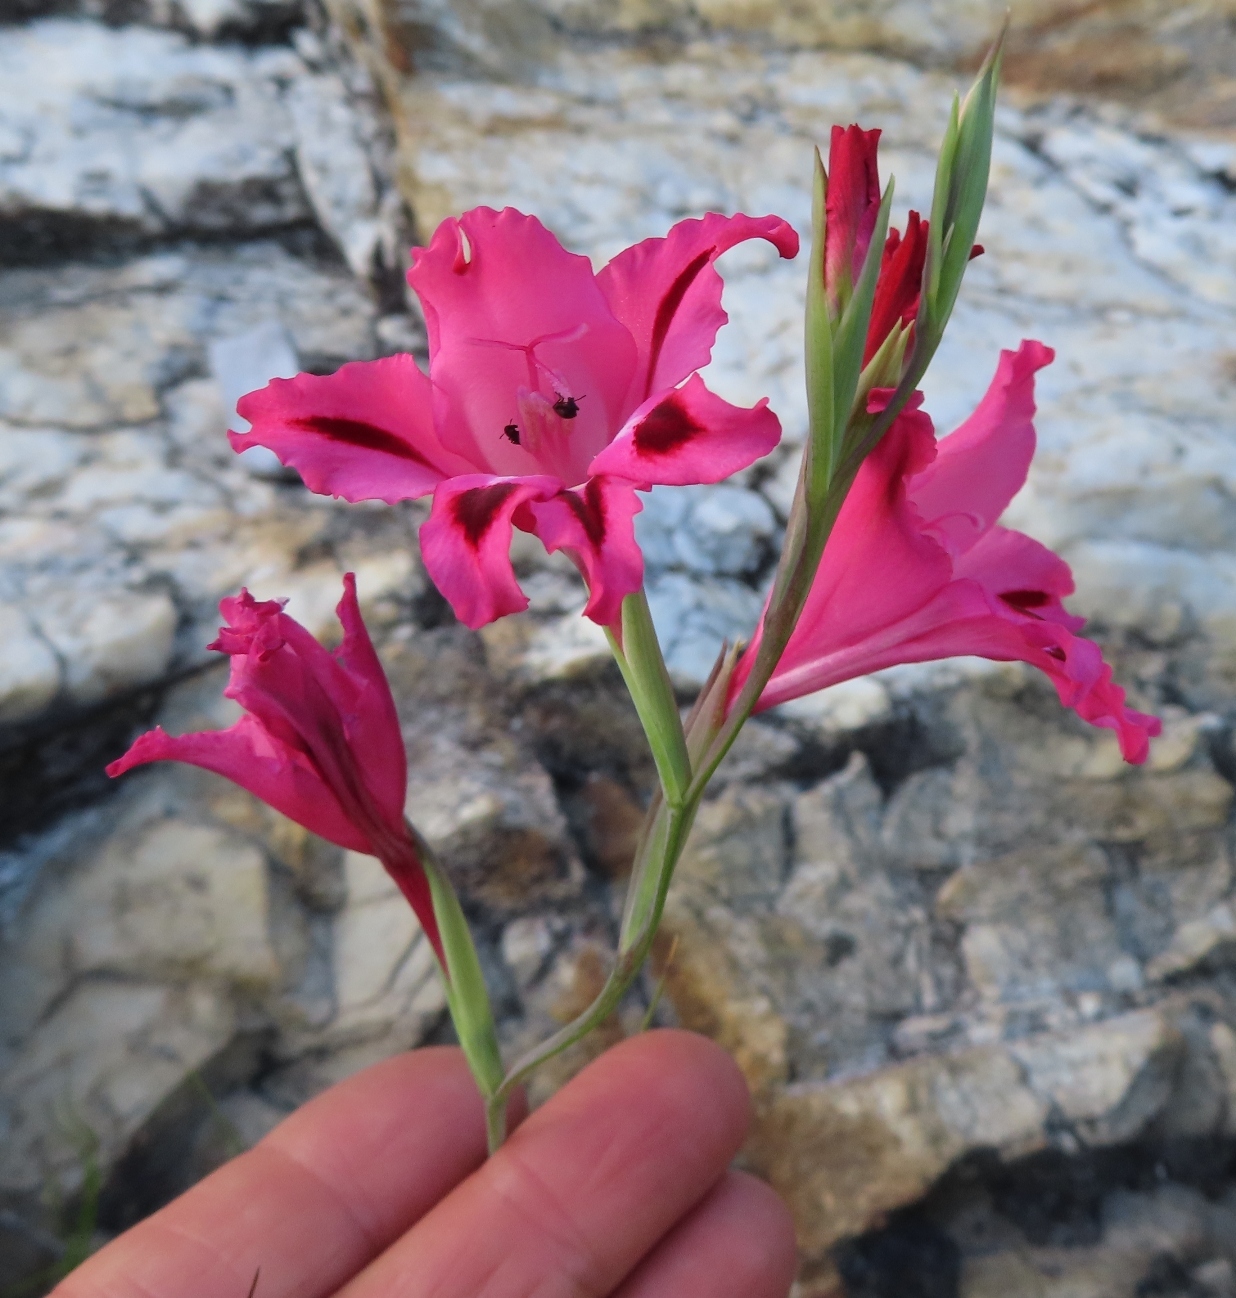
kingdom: Plantae
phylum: Tracheophyta
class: Liliopsida
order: Asparagales
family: Iridaceae
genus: Gladiolus
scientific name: Gladiolus crispulatus
